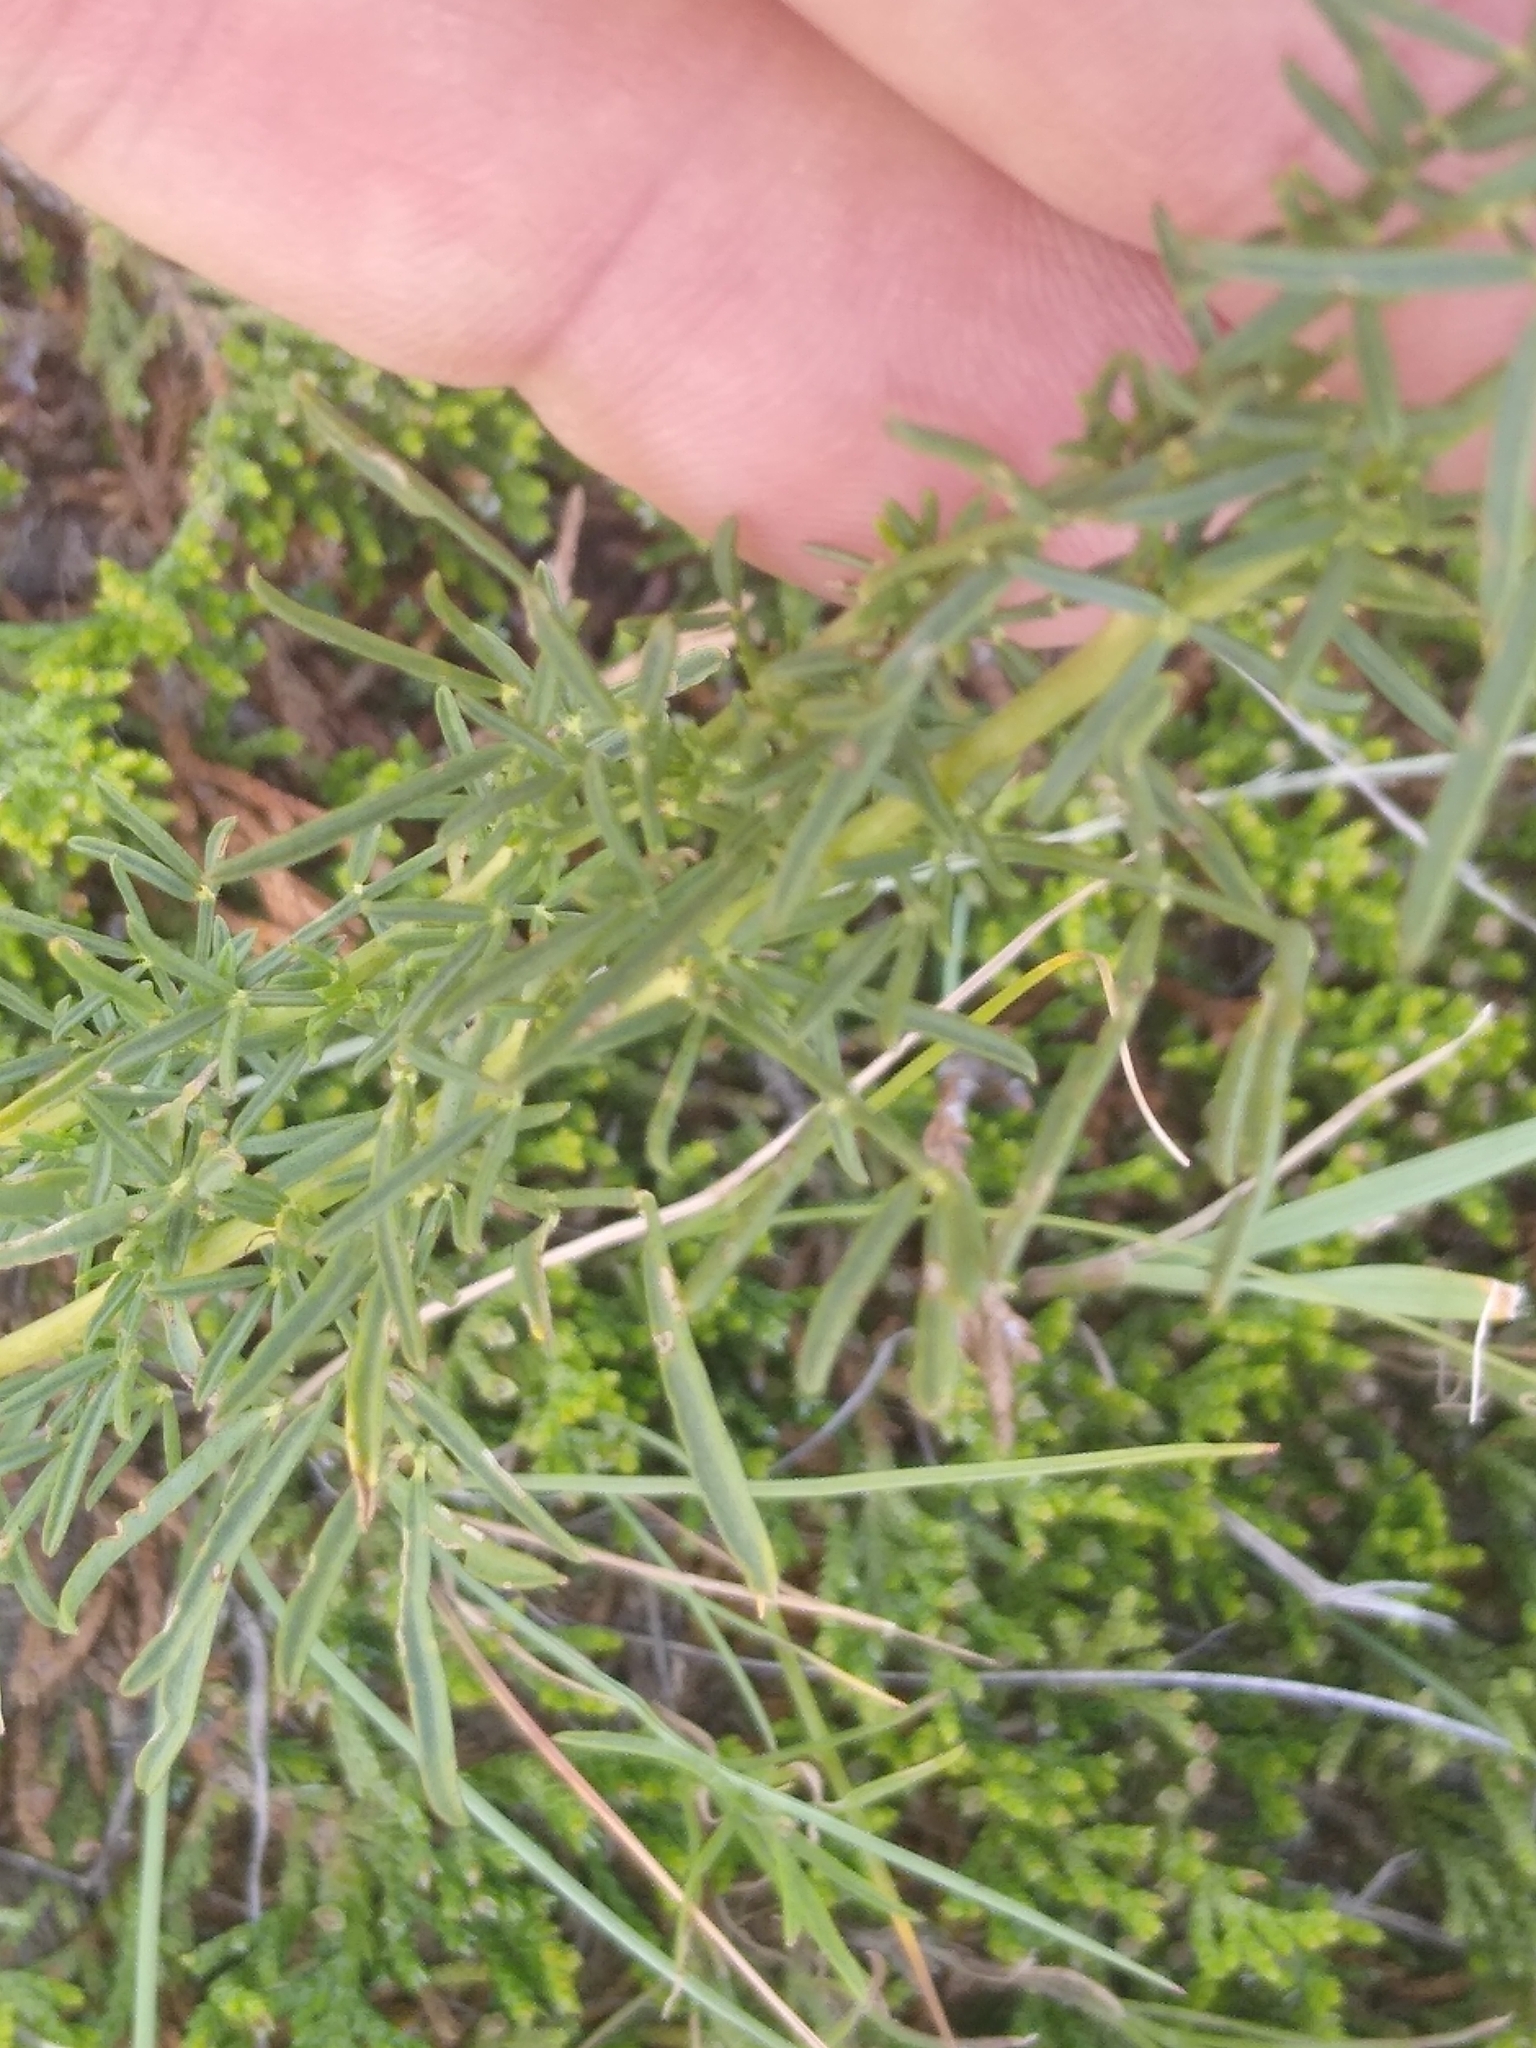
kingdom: Plantae
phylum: Tracheophyta
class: Magnoliopsida
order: Fabales
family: Fabaceae
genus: Dalea
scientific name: Dalea purpurea
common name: Purple prairie-clover
